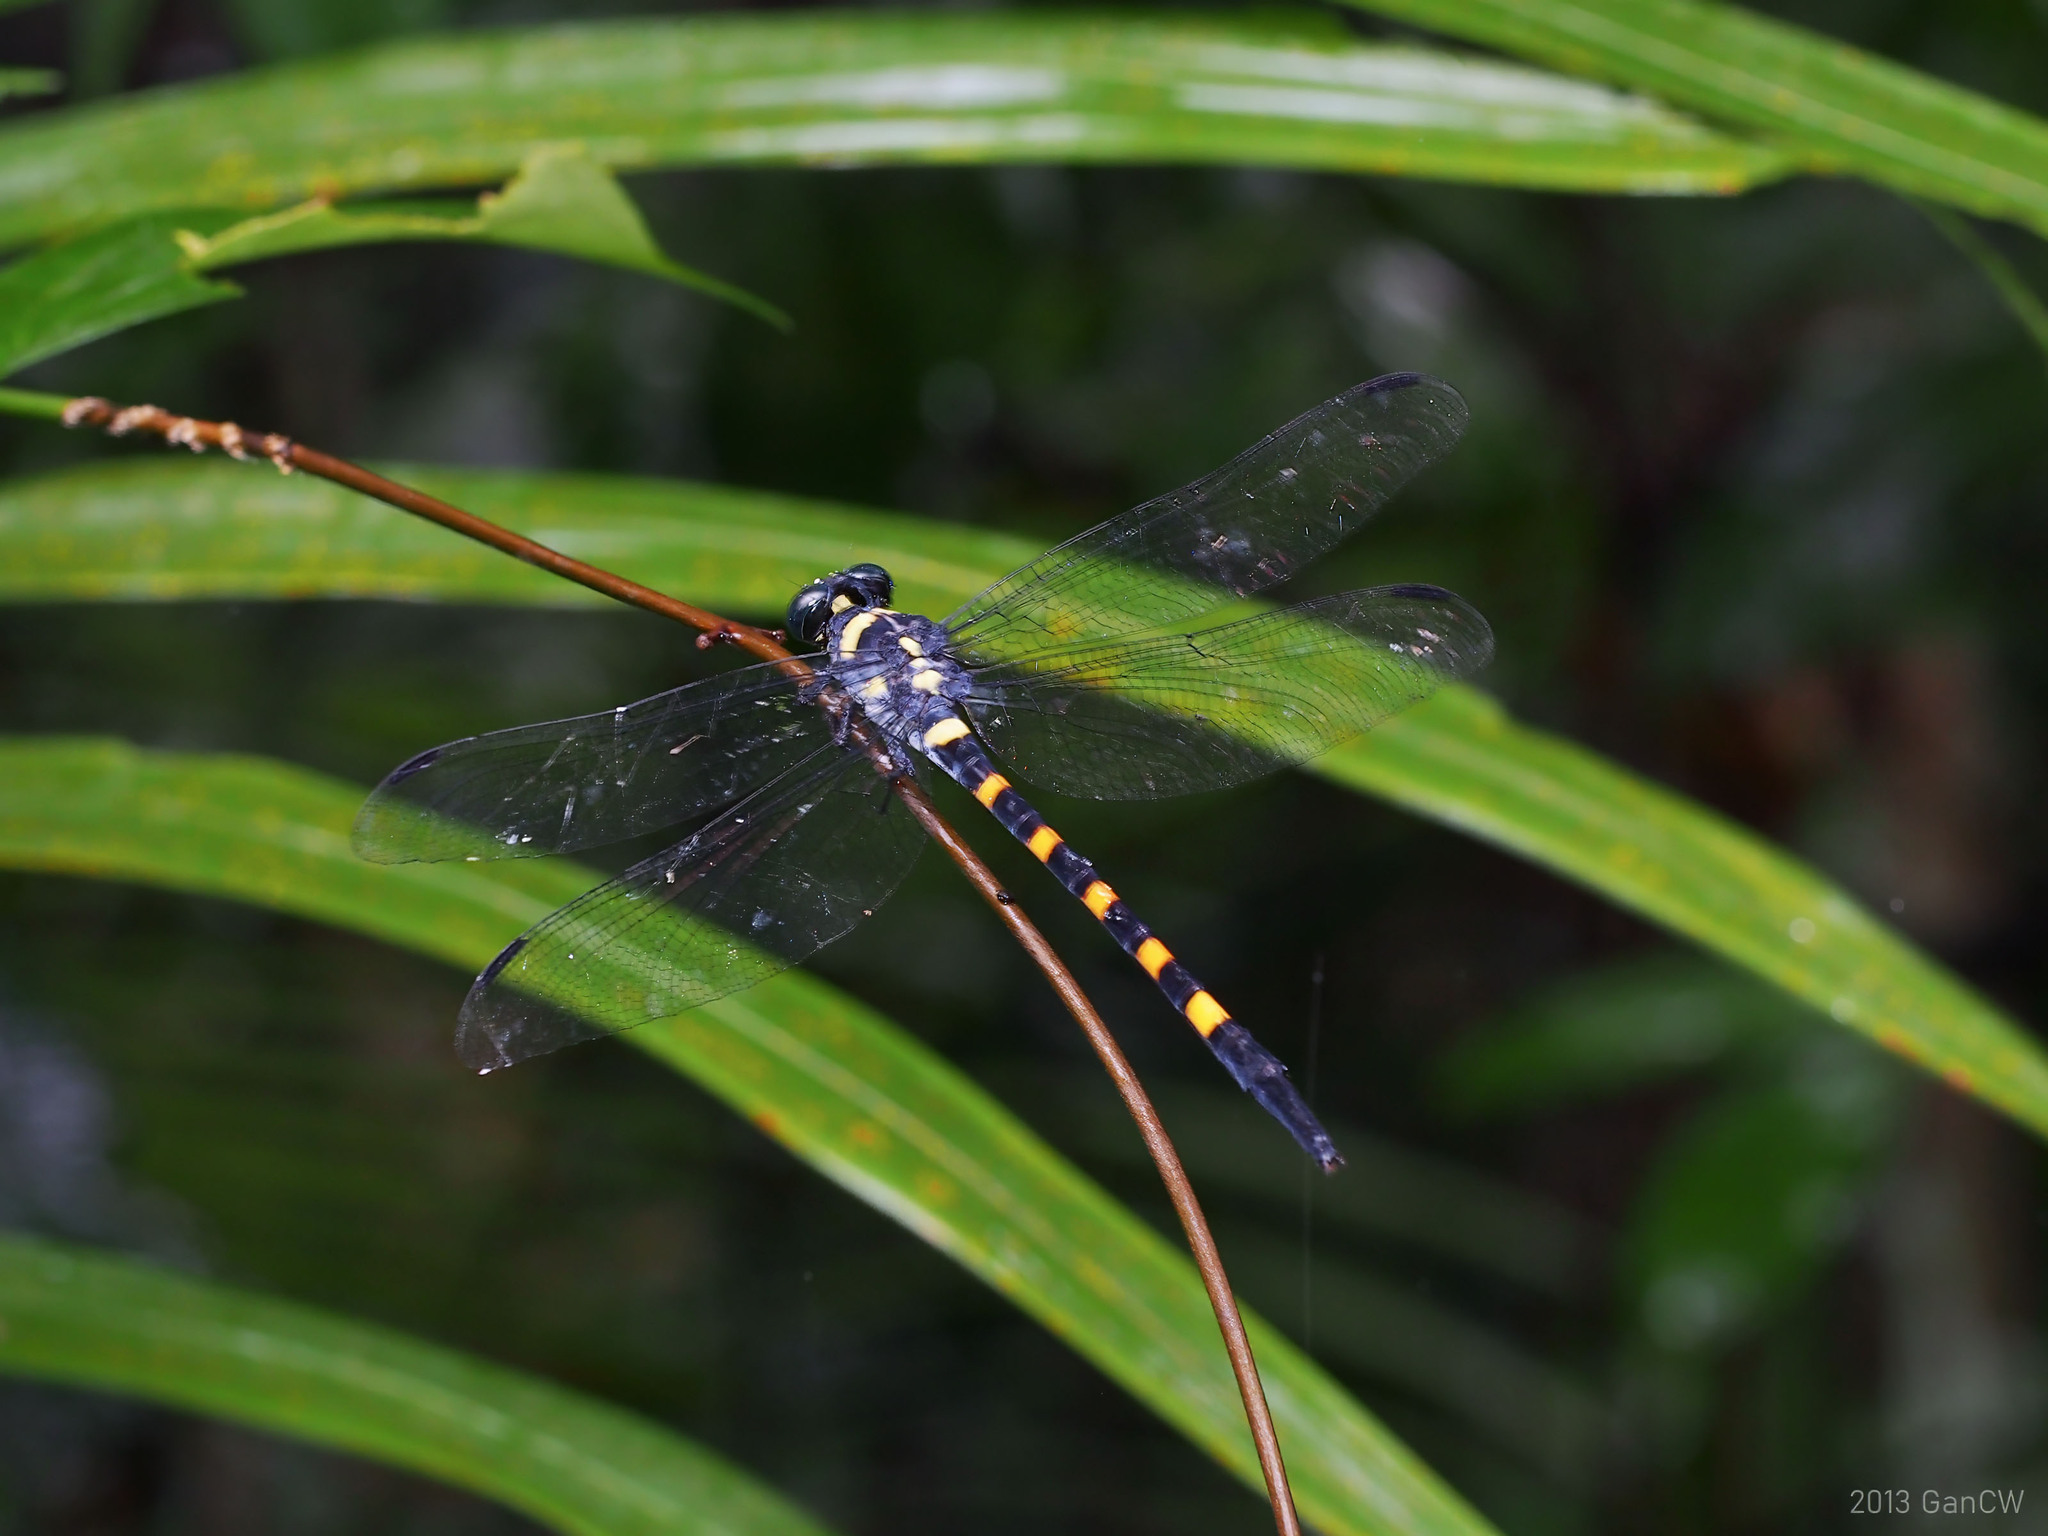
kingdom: Animalia
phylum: Arthropoda
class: Insecta
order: Odonata
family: Gomphidae
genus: Macrogomphus
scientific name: Macrogomphus quadratus
